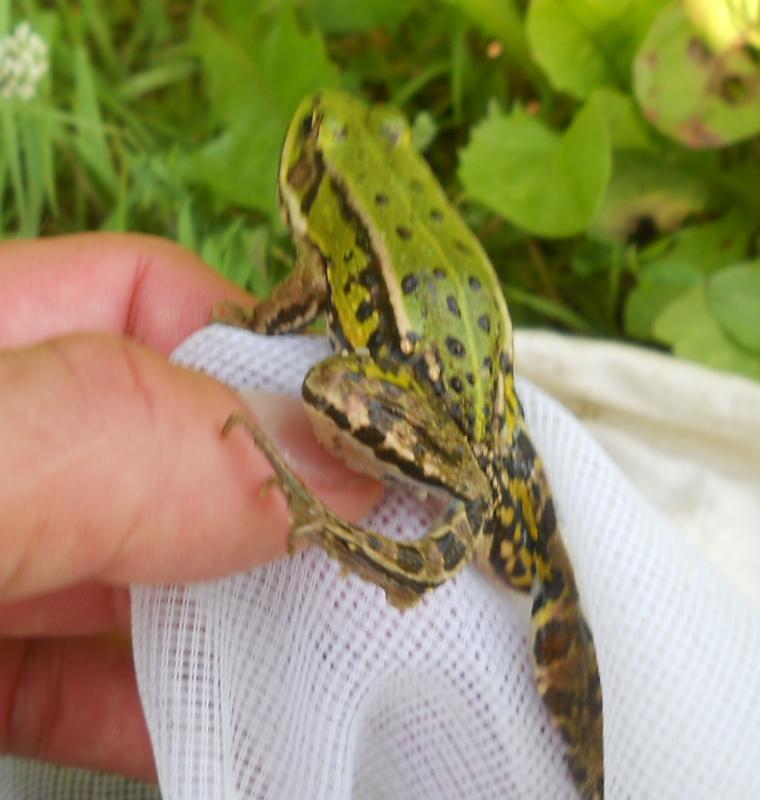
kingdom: Animalia
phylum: Chordata
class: Amphibia
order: Anura
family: Ranidae
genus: Pelophylax
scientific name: Pelophylax
